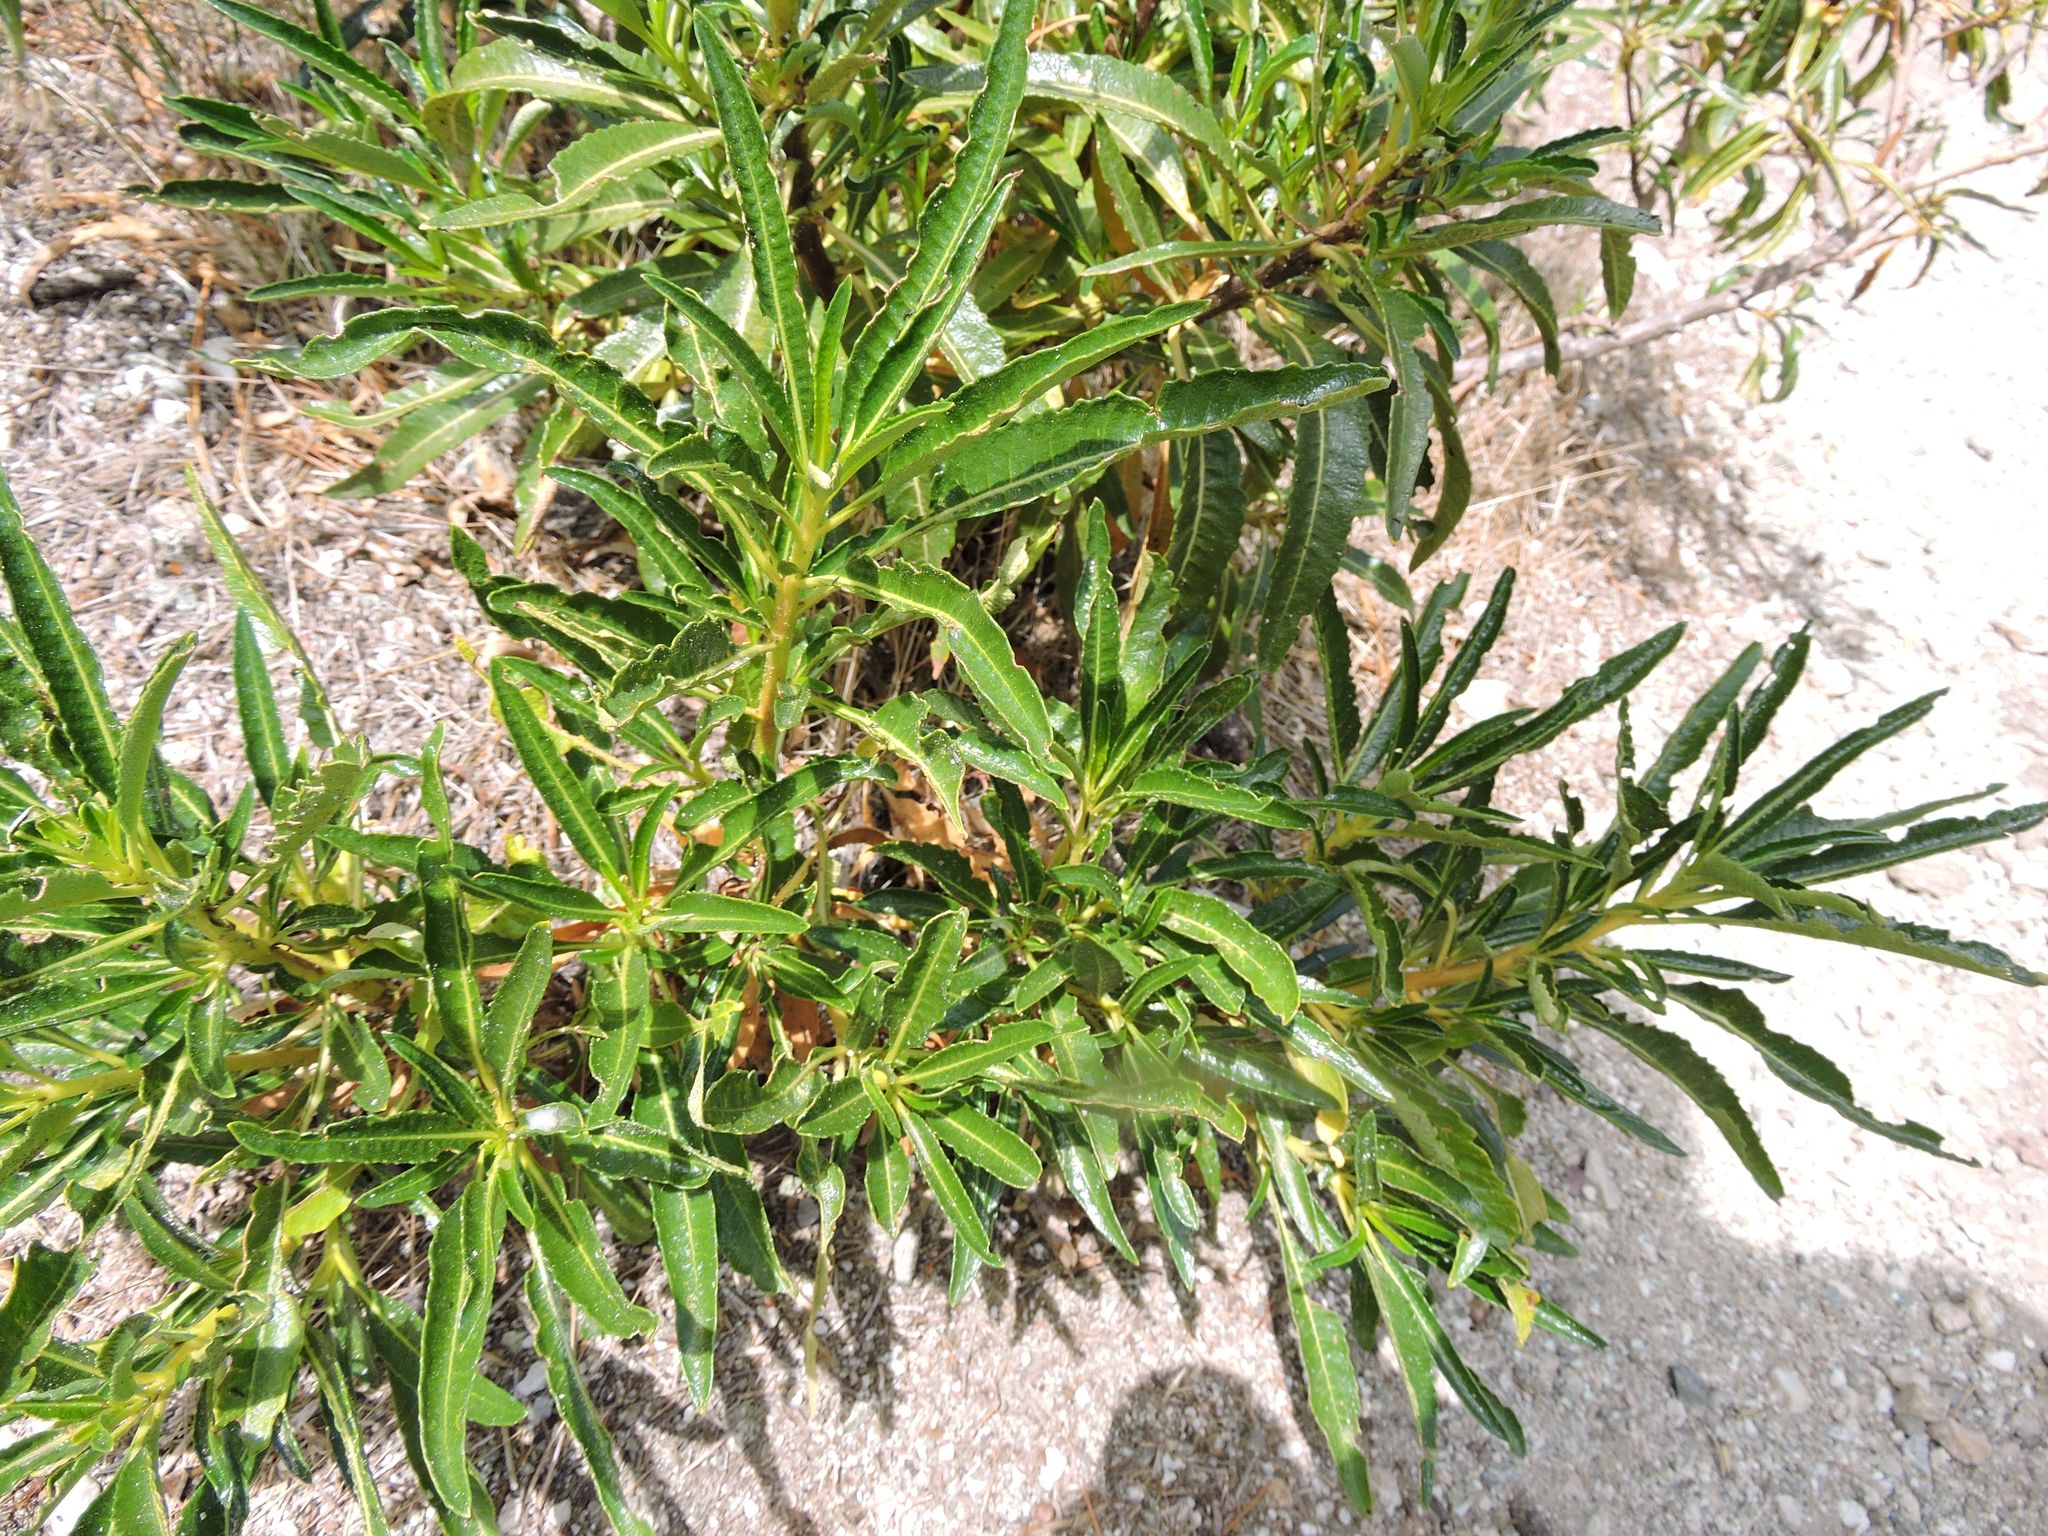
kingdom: Plantae
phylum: Tracheophyta
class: Magnoliopsida
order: Boraginales
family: Namaceae
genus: Eriodictyon
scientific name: Eriodictyon trichocalyx
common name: Hairy yerba-santa
